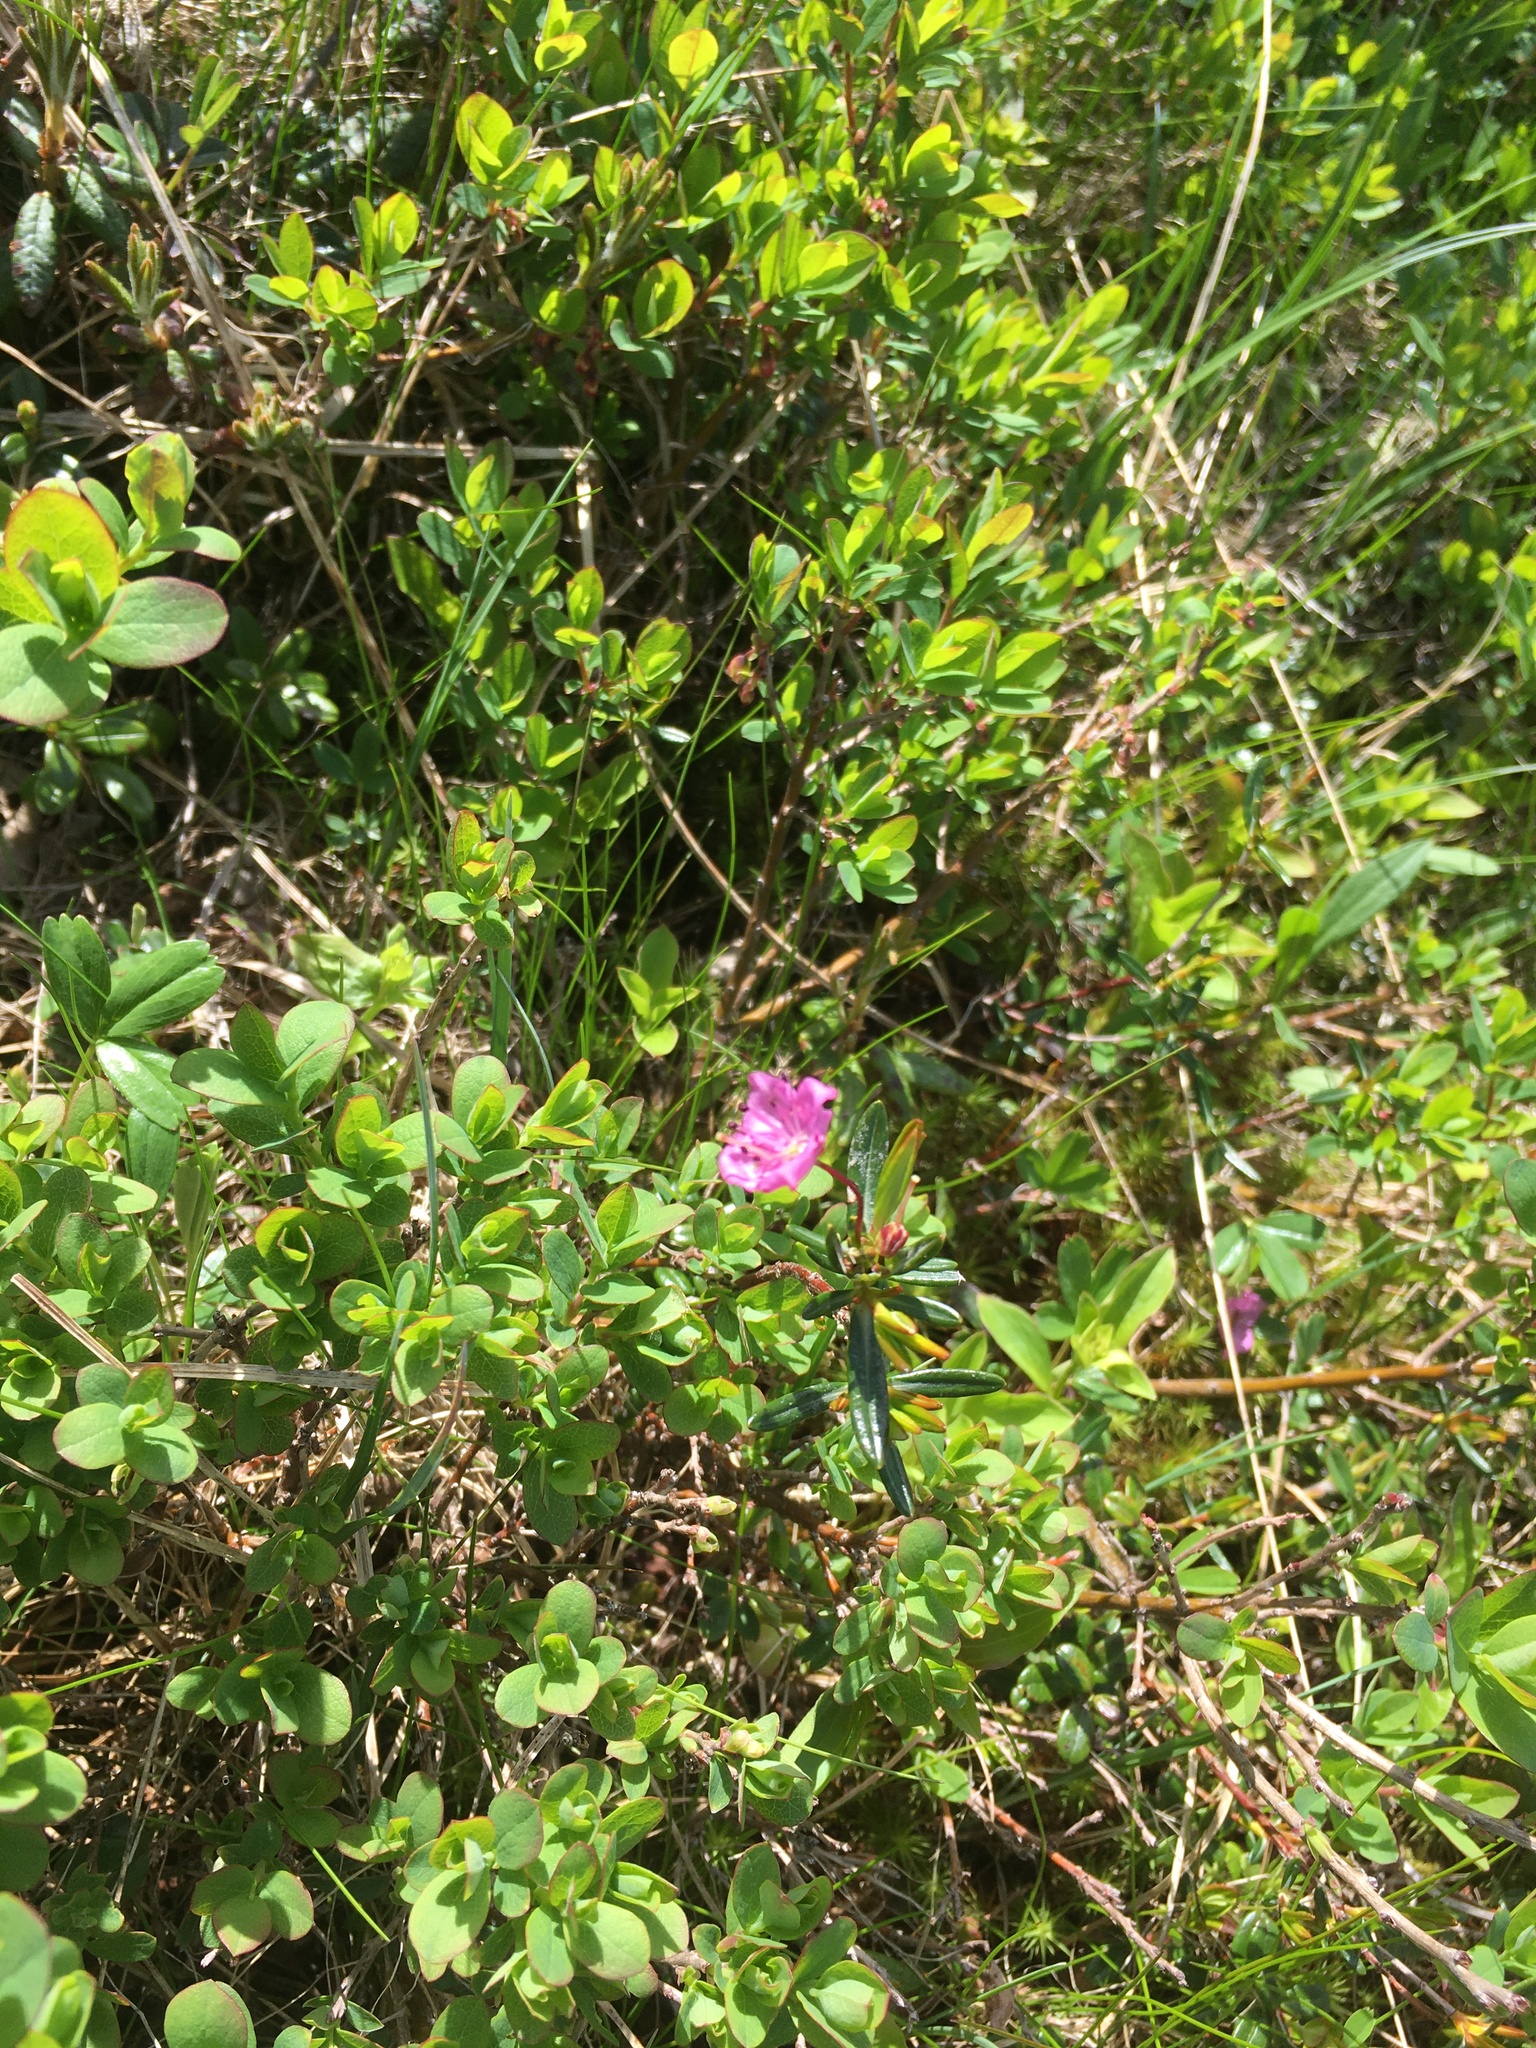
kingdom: Plantae
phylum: Tracheophyta
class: Magnoliopsida
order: Ericales
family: Ericaceae
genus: Kalmia
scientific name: Kalmia polifolia
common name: Bog-laurel
